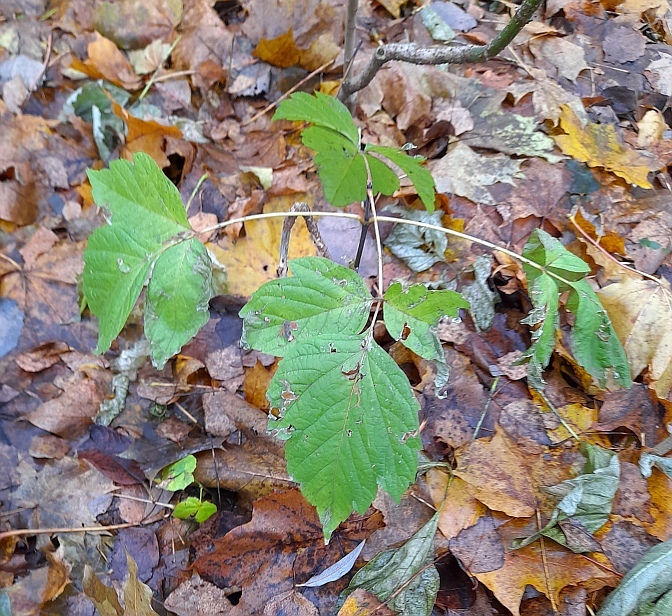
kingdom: Plantae
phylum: Tracheophyta
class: Magnoliopsida
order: Sapindales
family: Sapindaceae
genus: Acer
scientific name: Acer negundo
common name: Ashleaf maple
